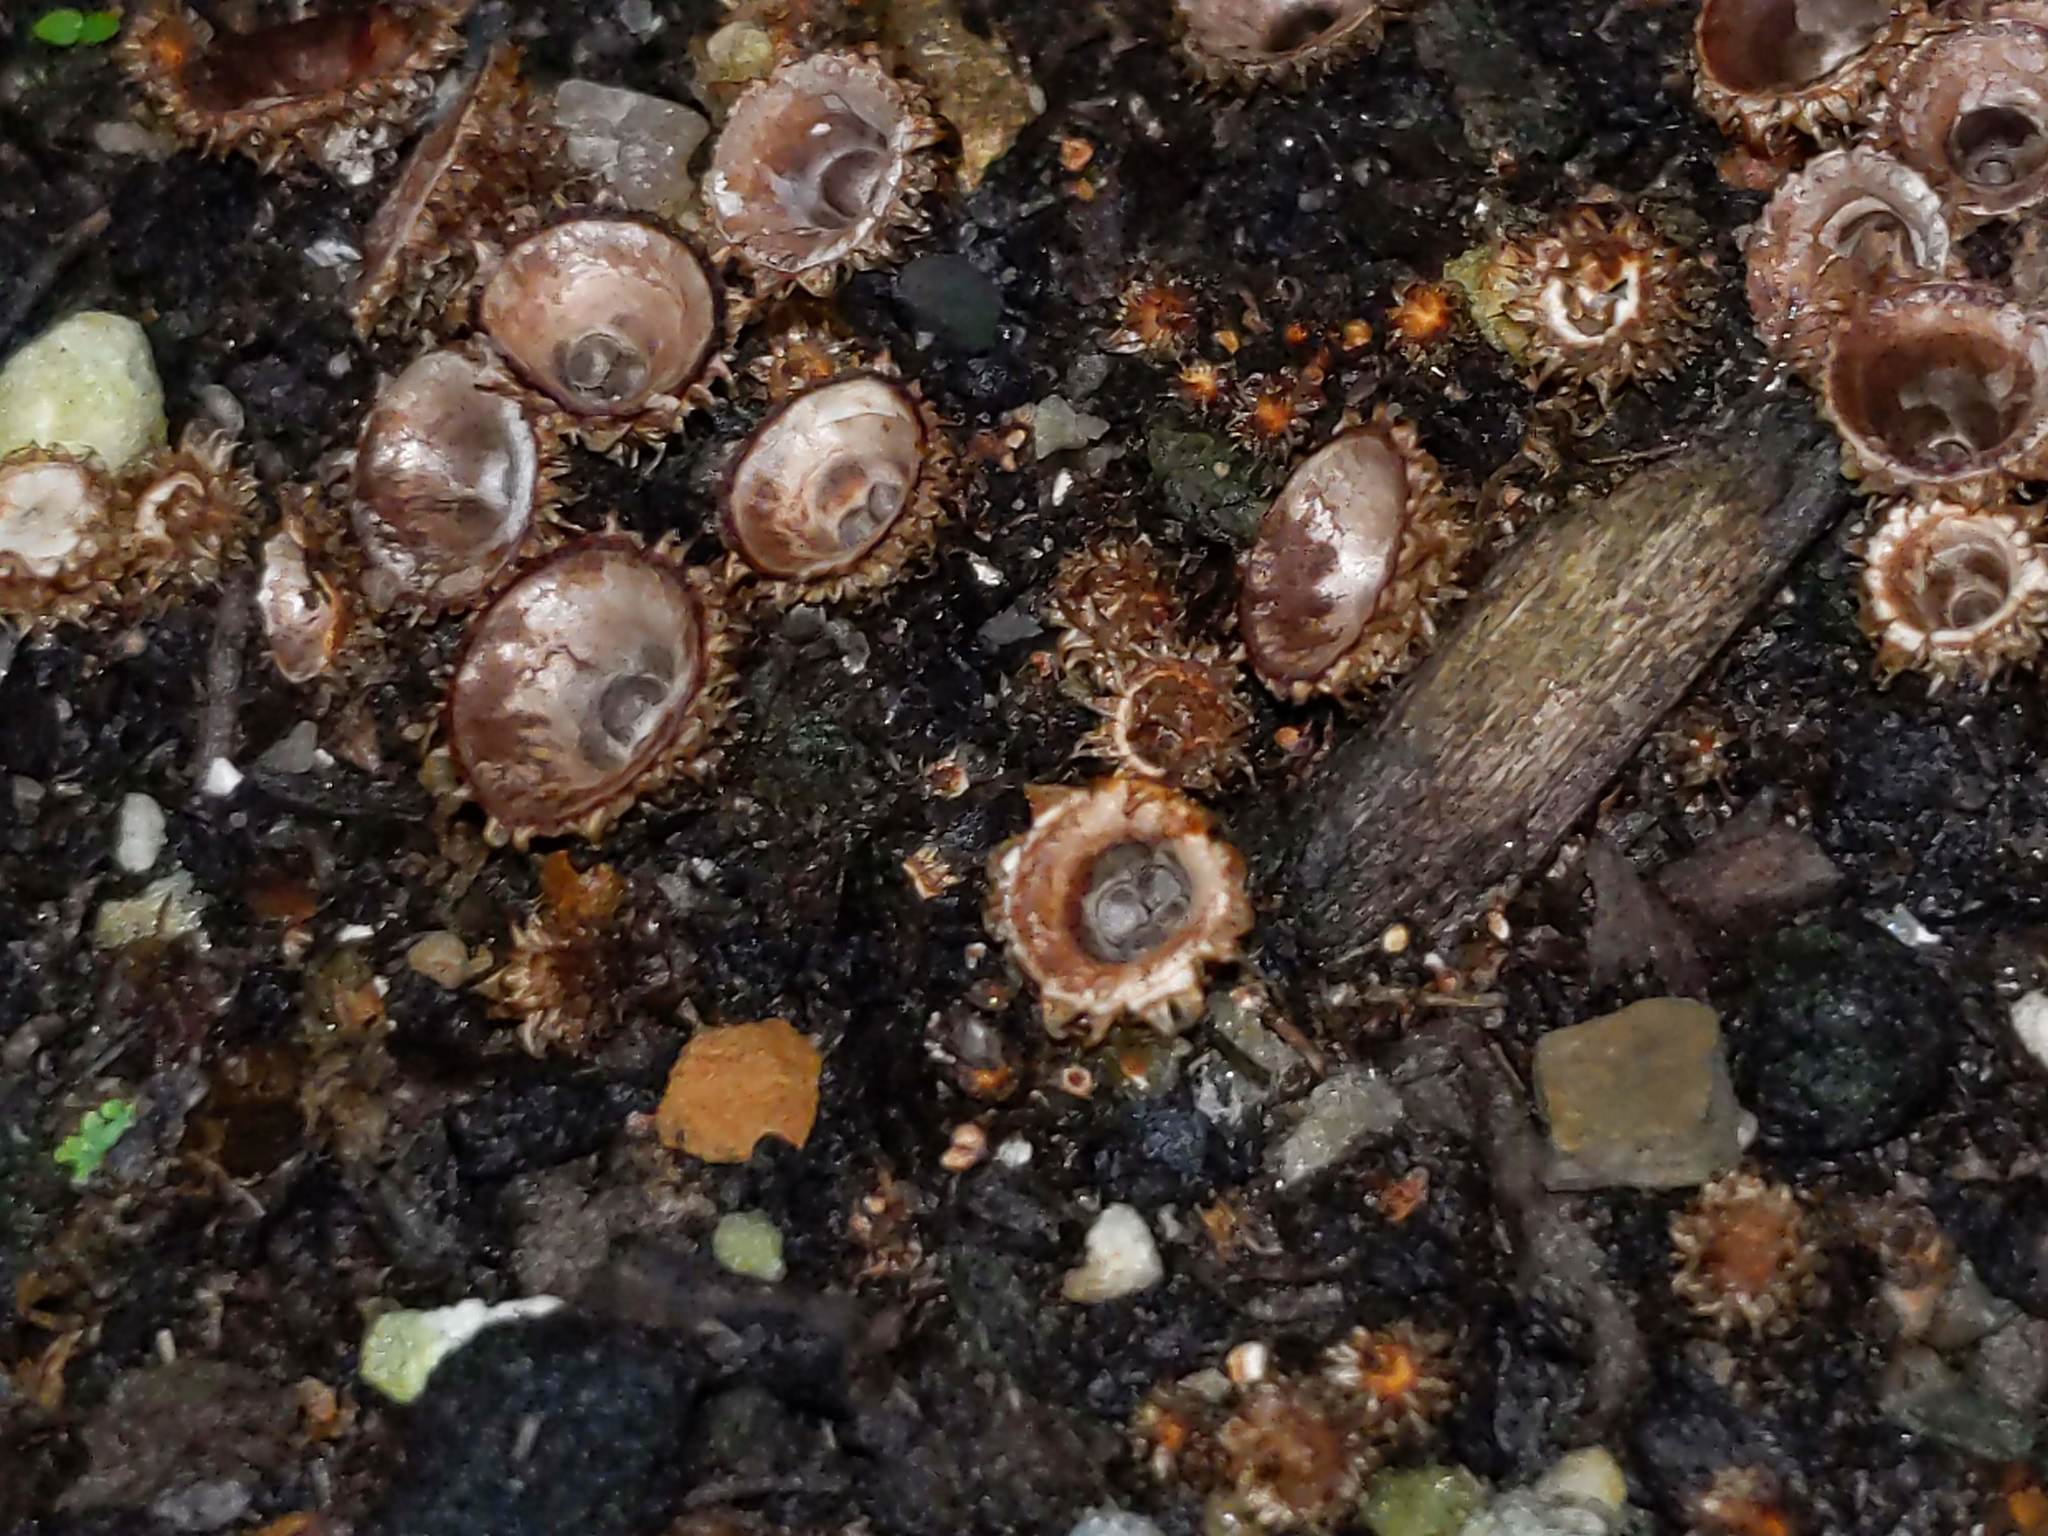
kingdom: Fungi
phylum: Basidiomycota
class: Agaricomycetes
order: Agaricales
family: Agaricaceae
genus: Cyathus
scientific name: Cyathus striatus
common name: Fluted bird's nest
